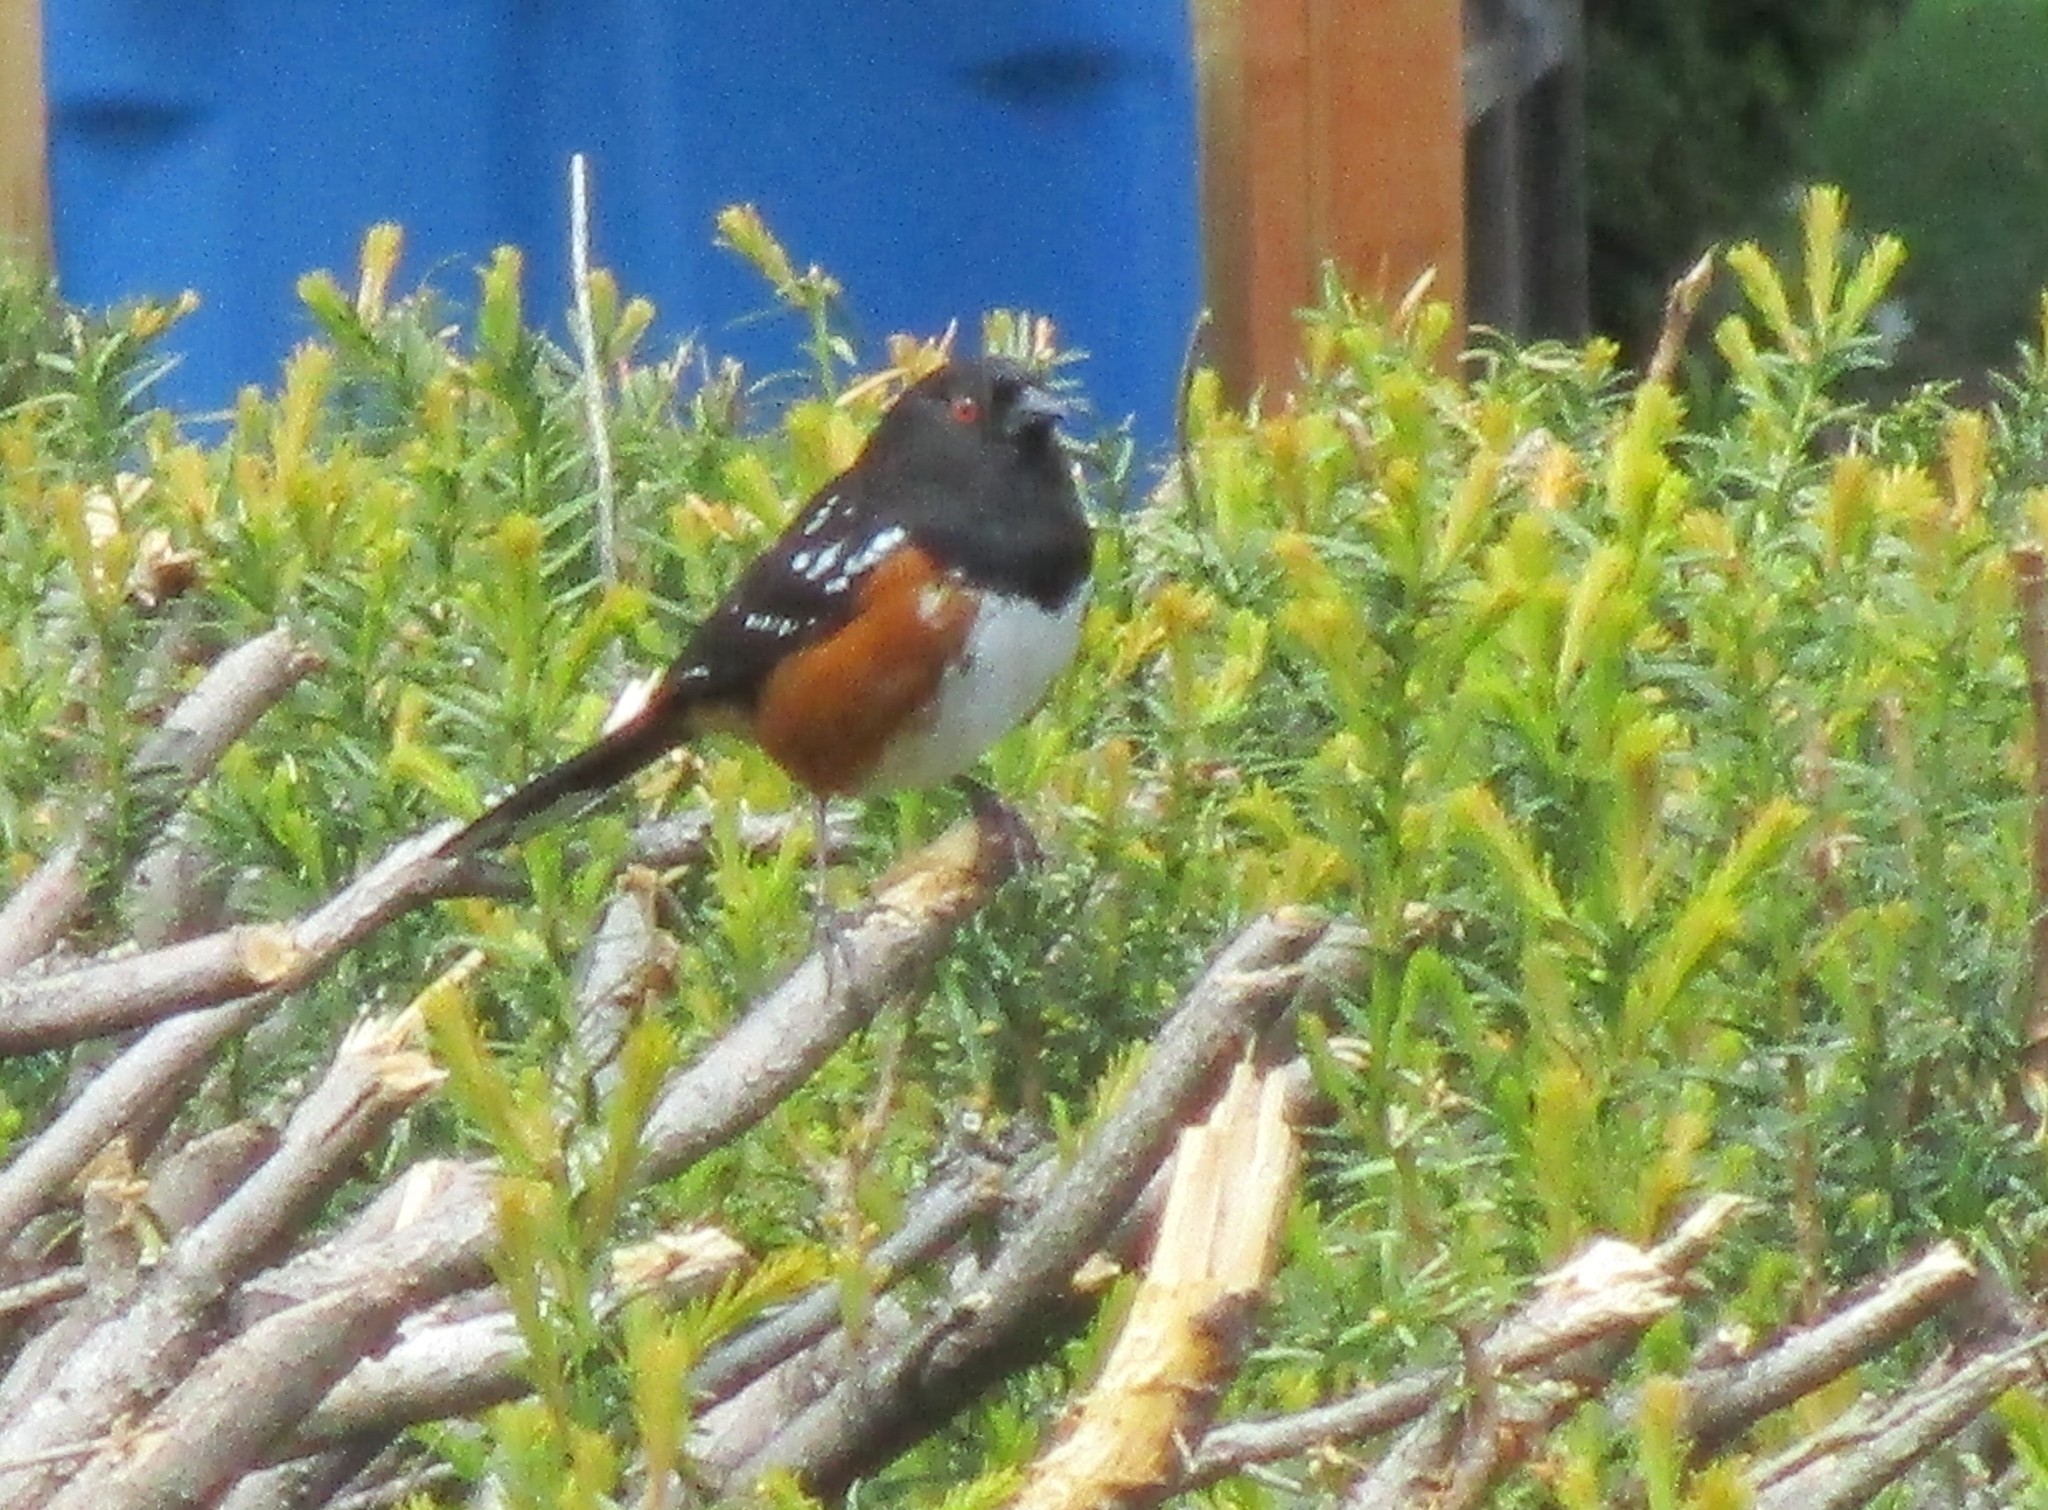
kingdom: Animalia
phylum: Chordata
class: Aves
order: Passeriformes
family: Passerellidae
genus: Pipilo
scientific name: Pipilo maculatus
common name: Spotted towhee
